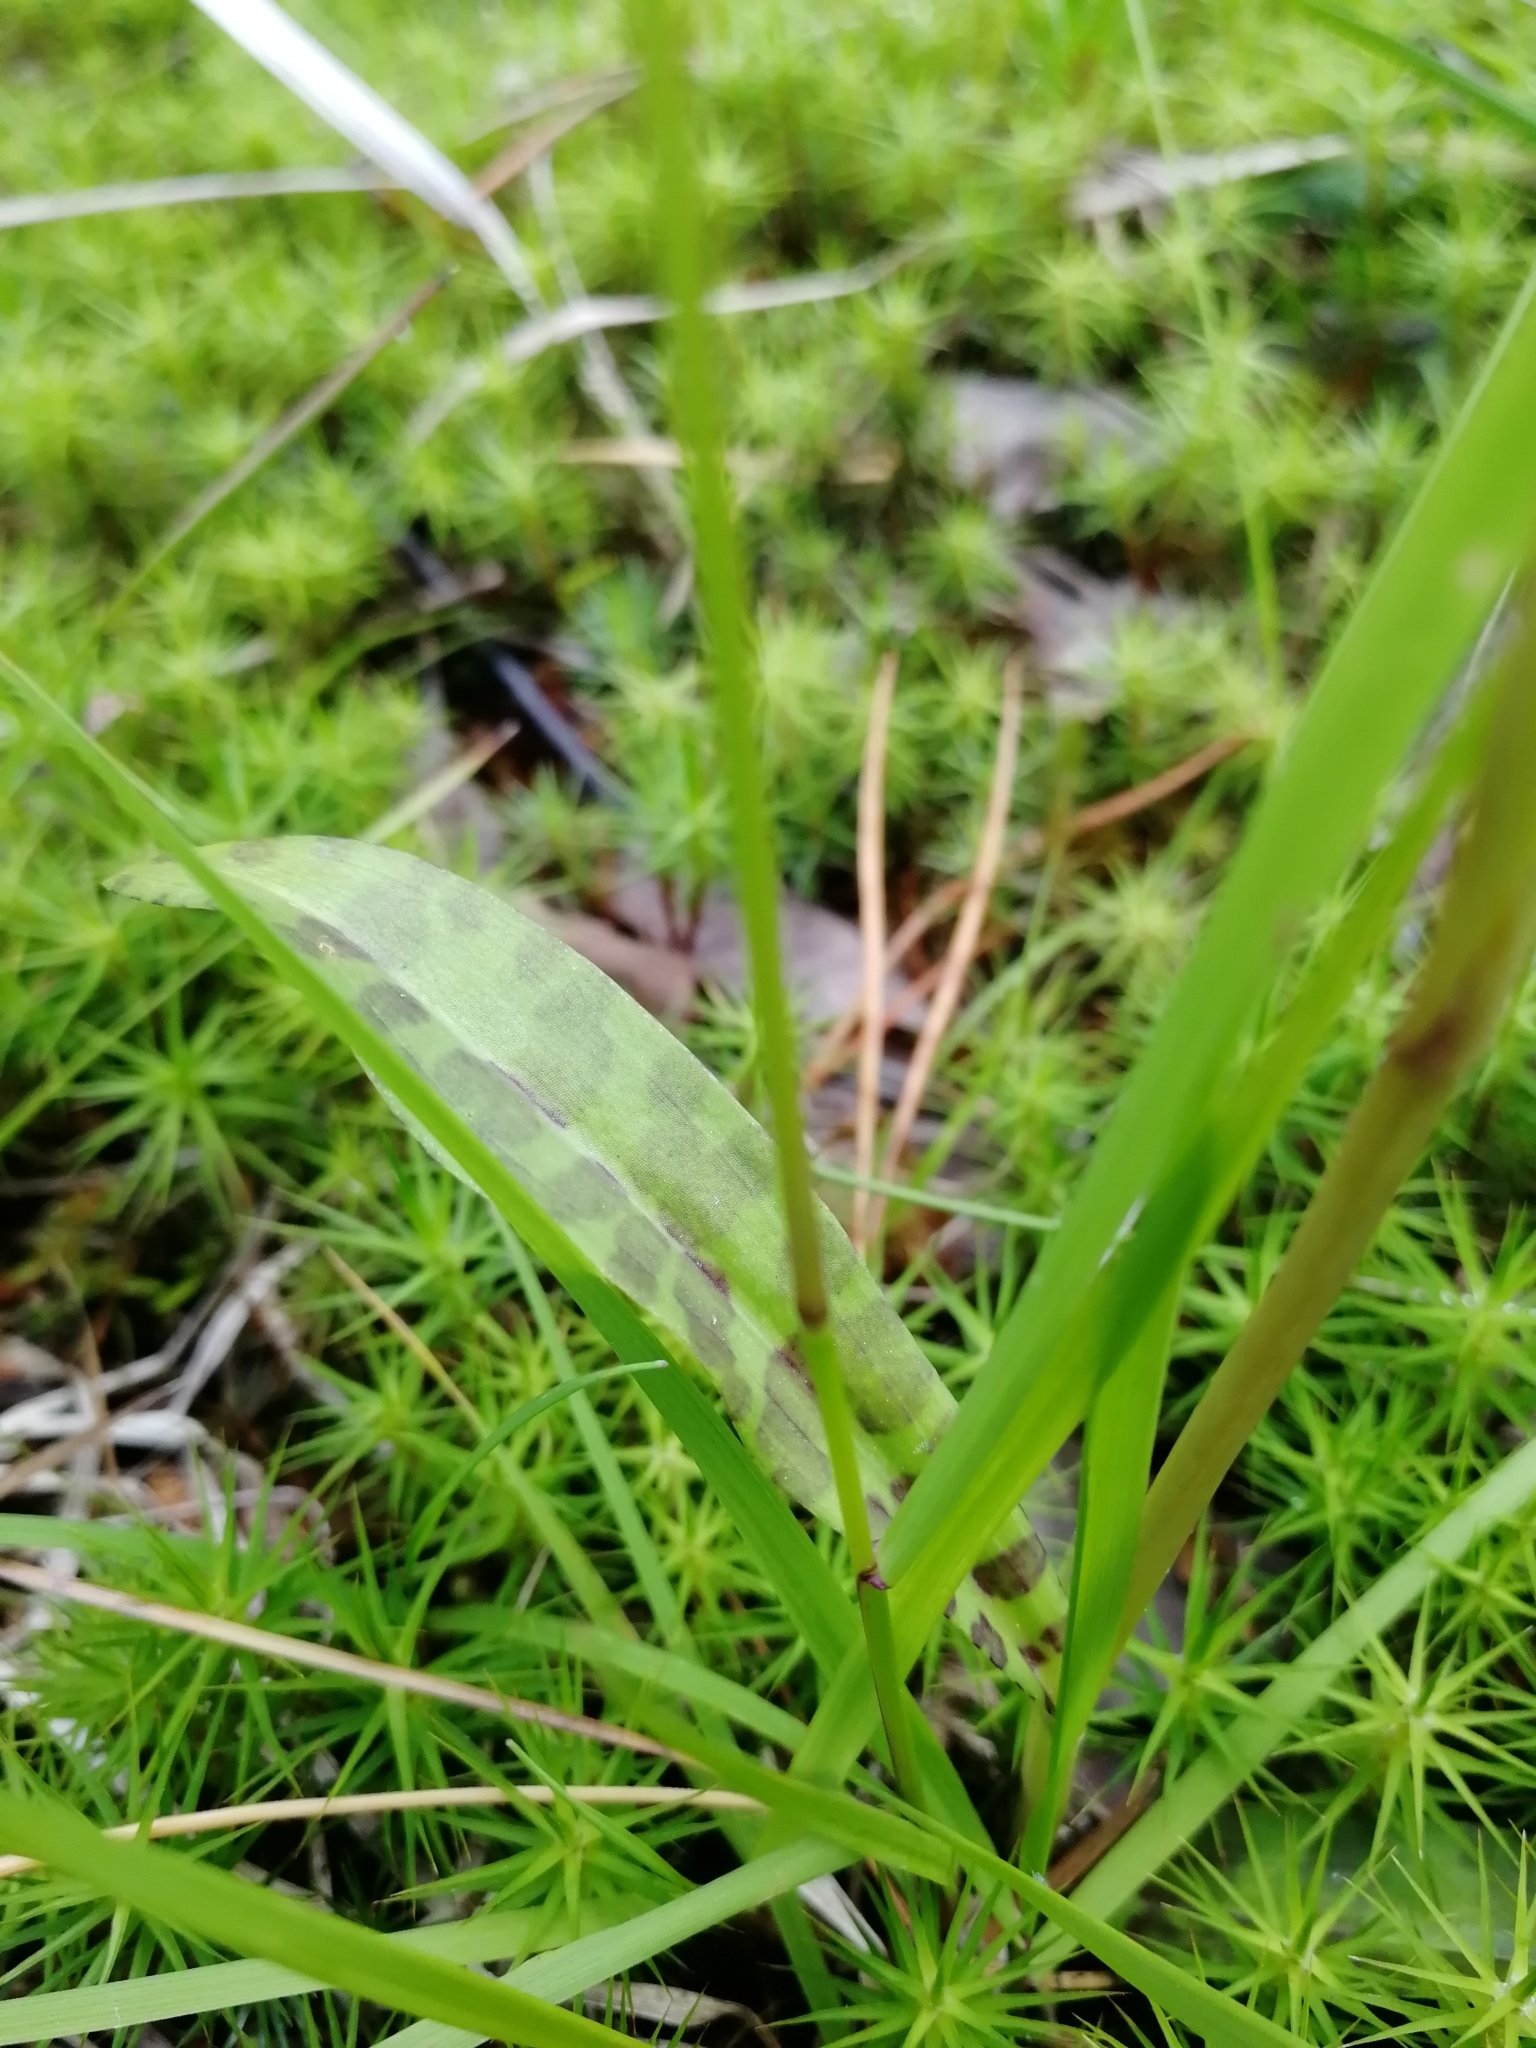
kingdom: Plantae
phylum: Tracheophyta
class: Liliopsida
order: Asparagales
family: Orchidaceae
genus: Dactylorhiza
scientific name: Dactylorhiza maculata
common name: Heath spotted-orchid
